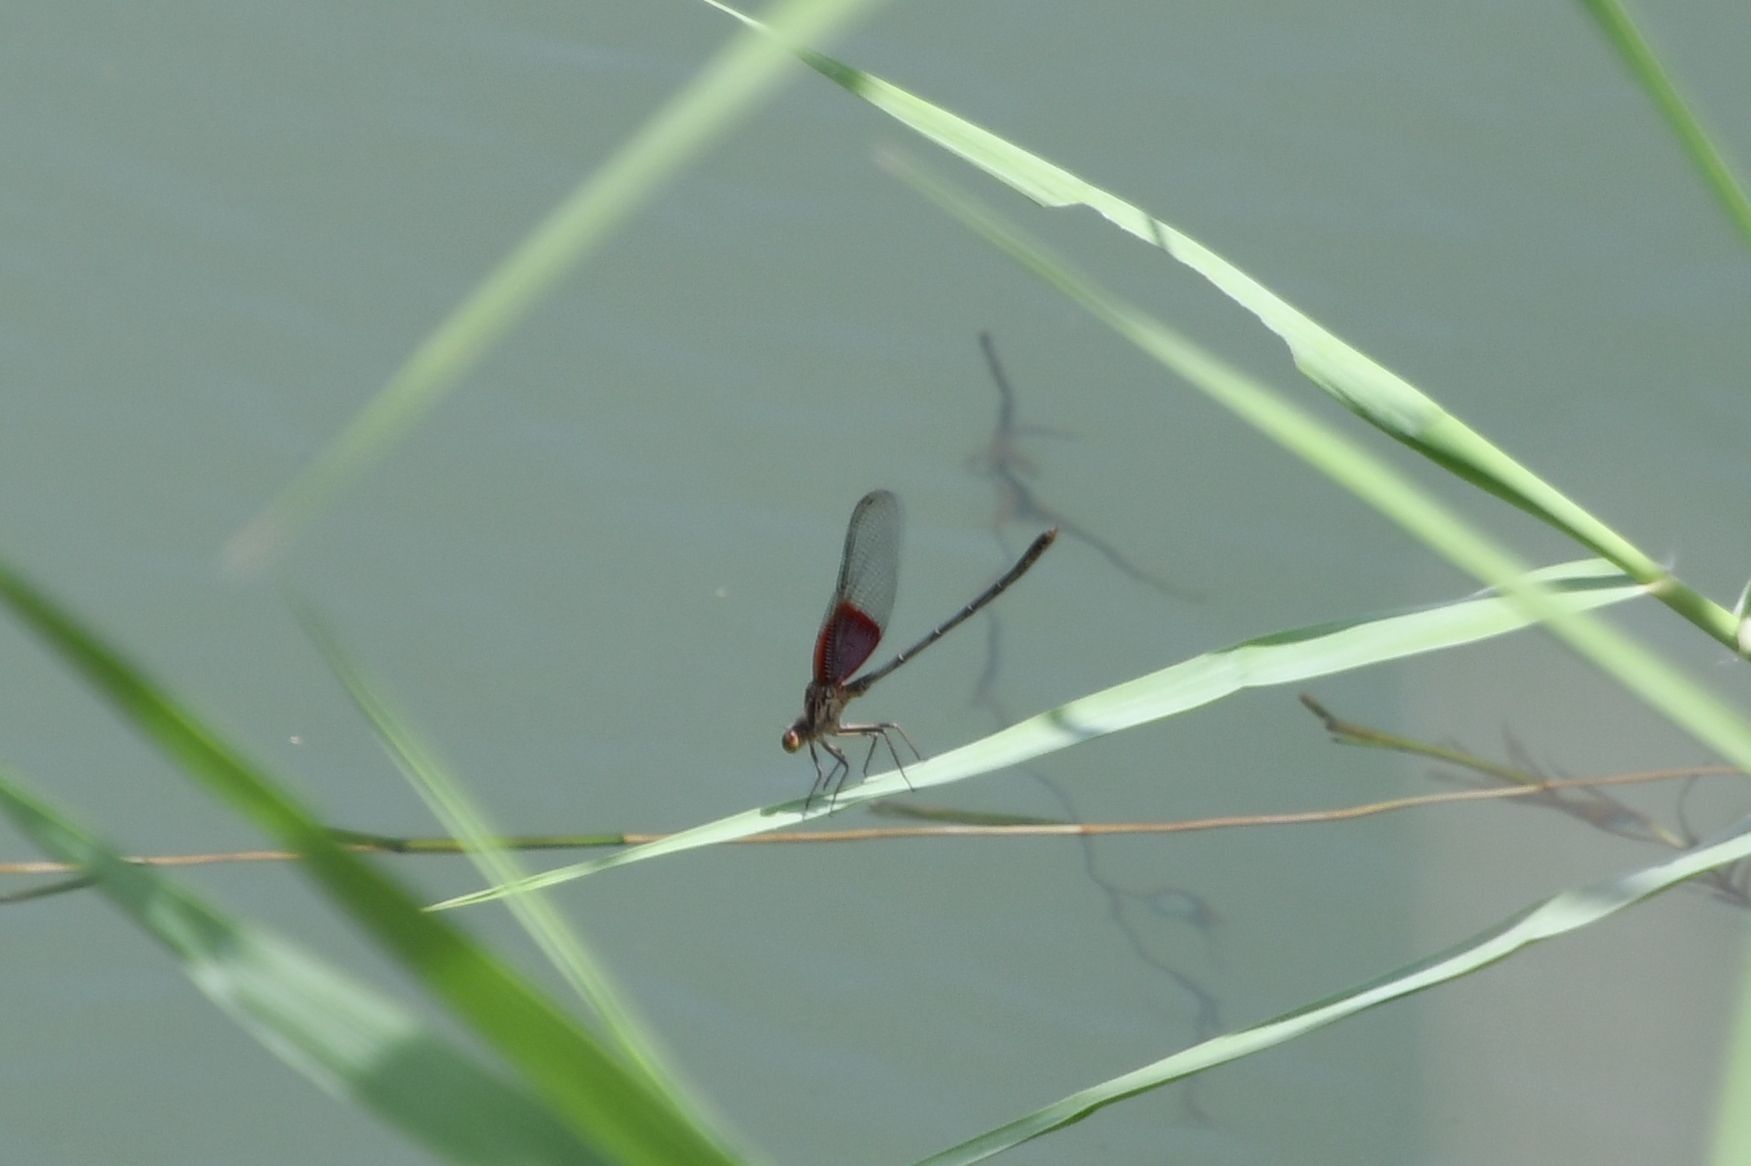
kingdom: Animalia
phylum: Arthropoda
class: Insecta
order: Odonata
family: Calopterygidae
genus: Hetaerina
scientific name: Hetaerina americana
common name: American rubyspot
